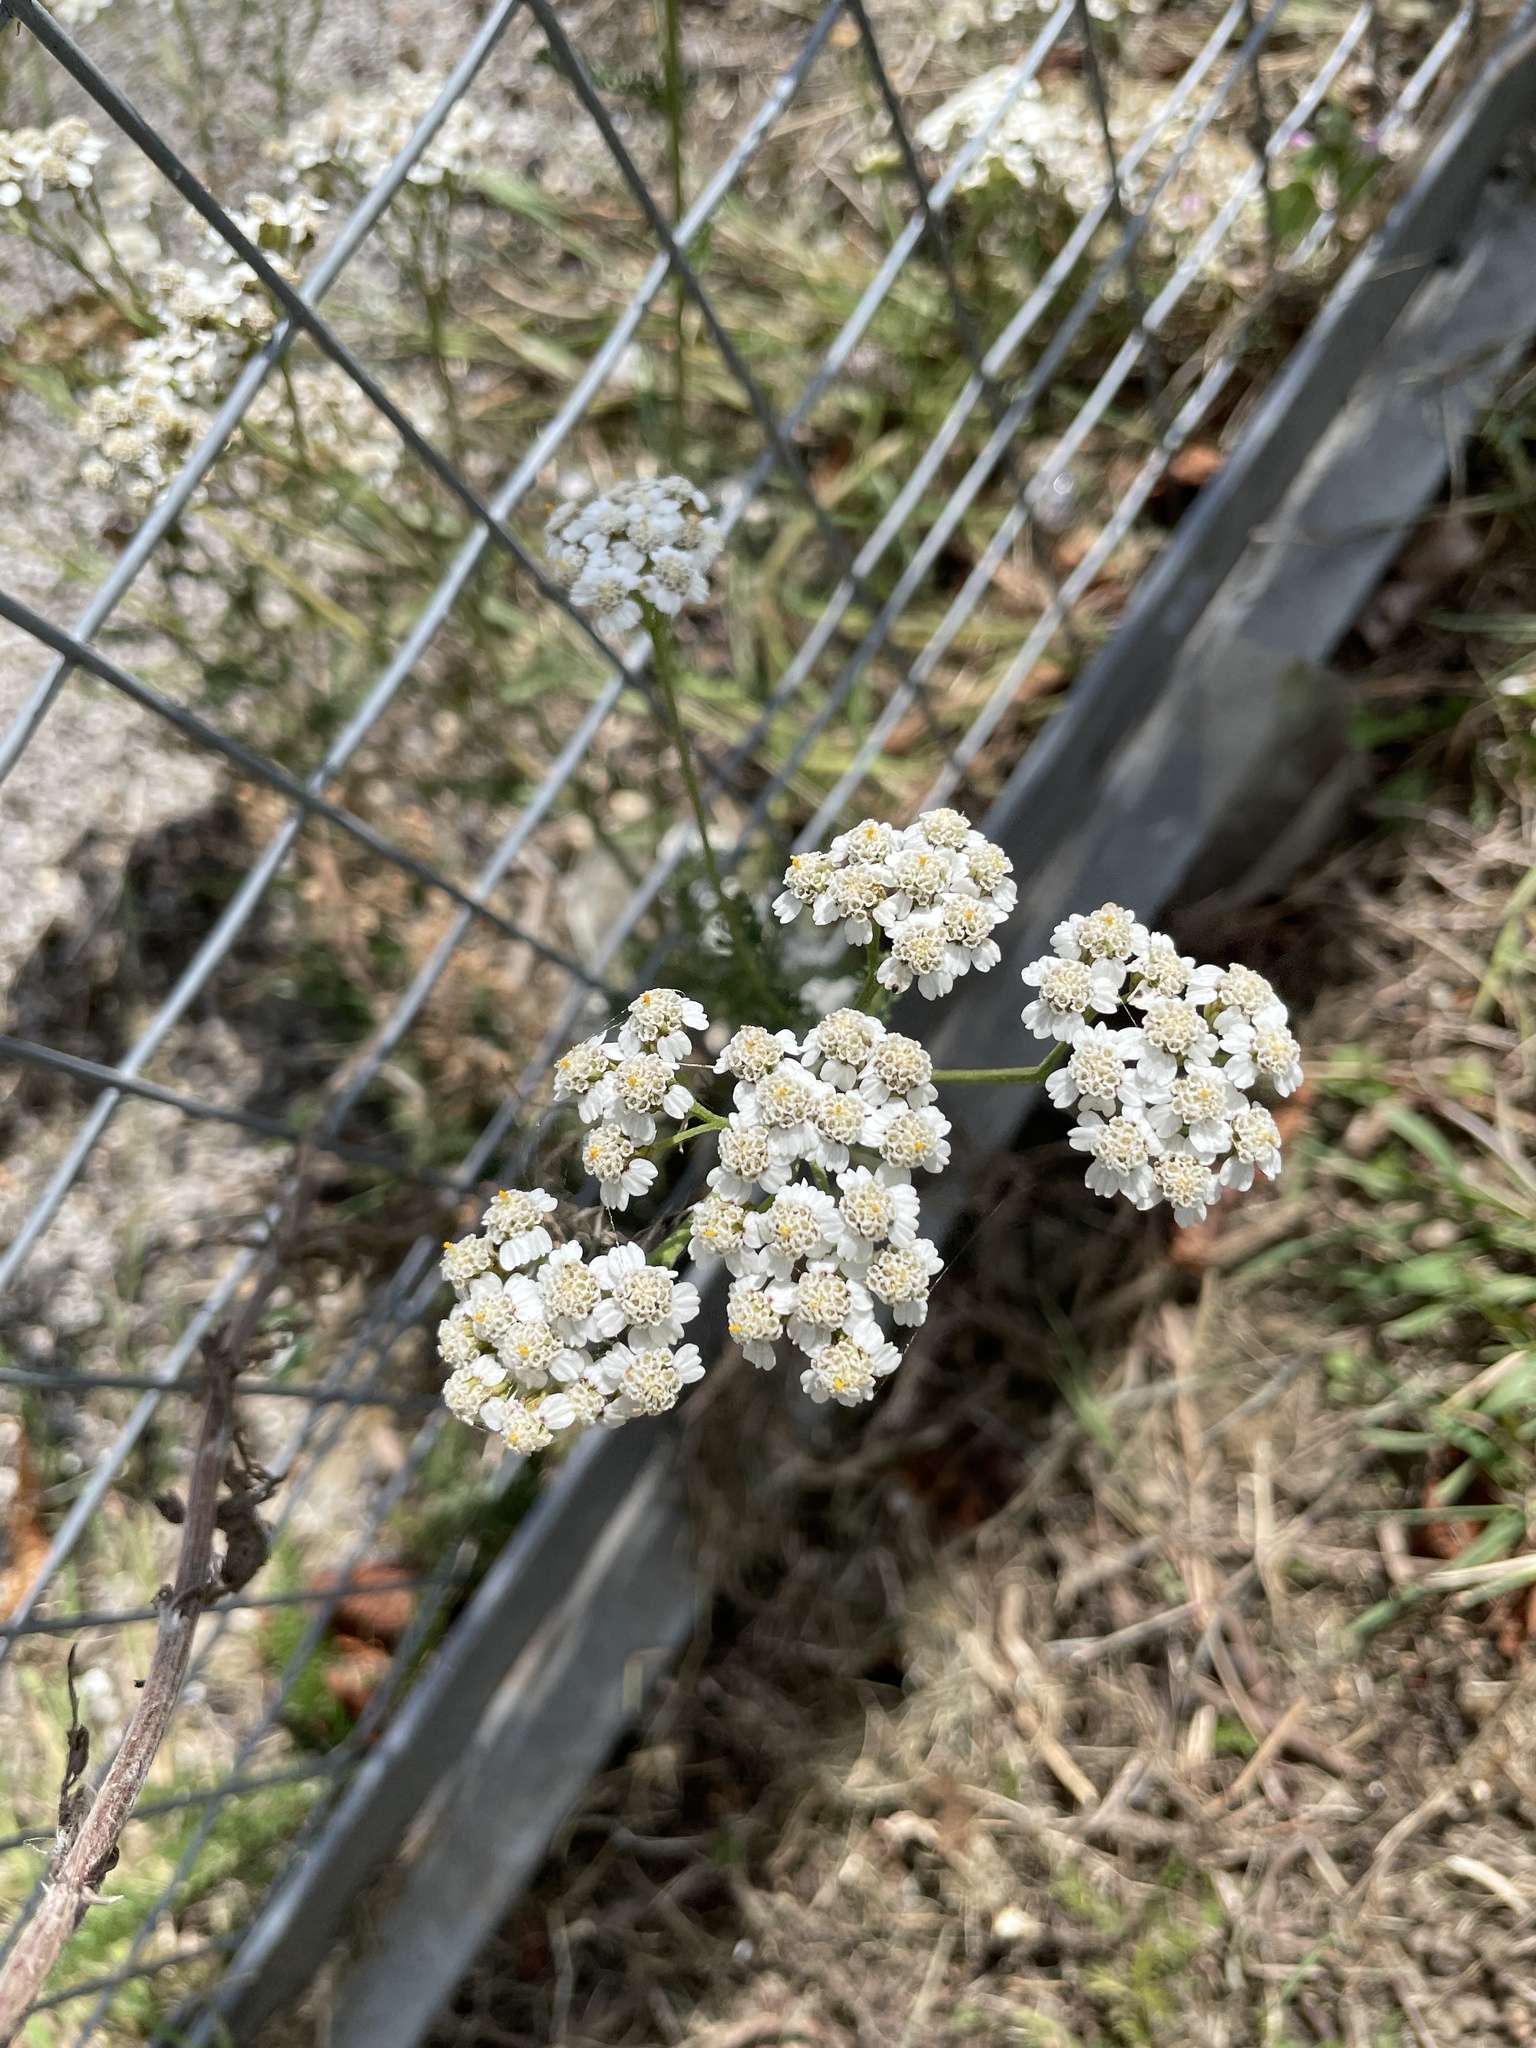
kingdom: Plantae
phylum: Tracheophyta
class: Magnoliopsida
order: Asterales
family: Asteraceae
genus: Achillea
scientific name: Achillea millefolium
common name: Yarrow
